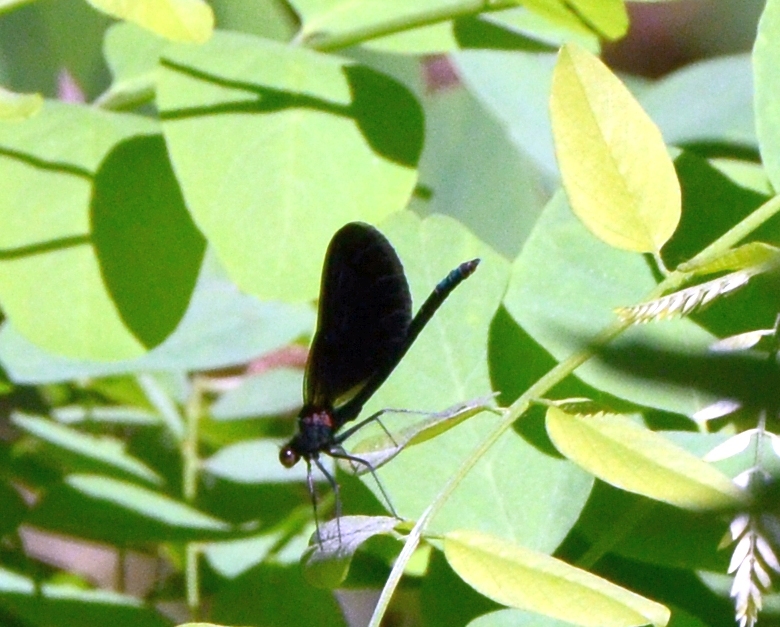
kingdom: Animalia
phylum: Arthropoda
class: Insecta
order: Odonata
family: Calopterygidae
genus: Calopteryx
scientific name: Calopteryx virgo
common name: Beautiful demoiselle
